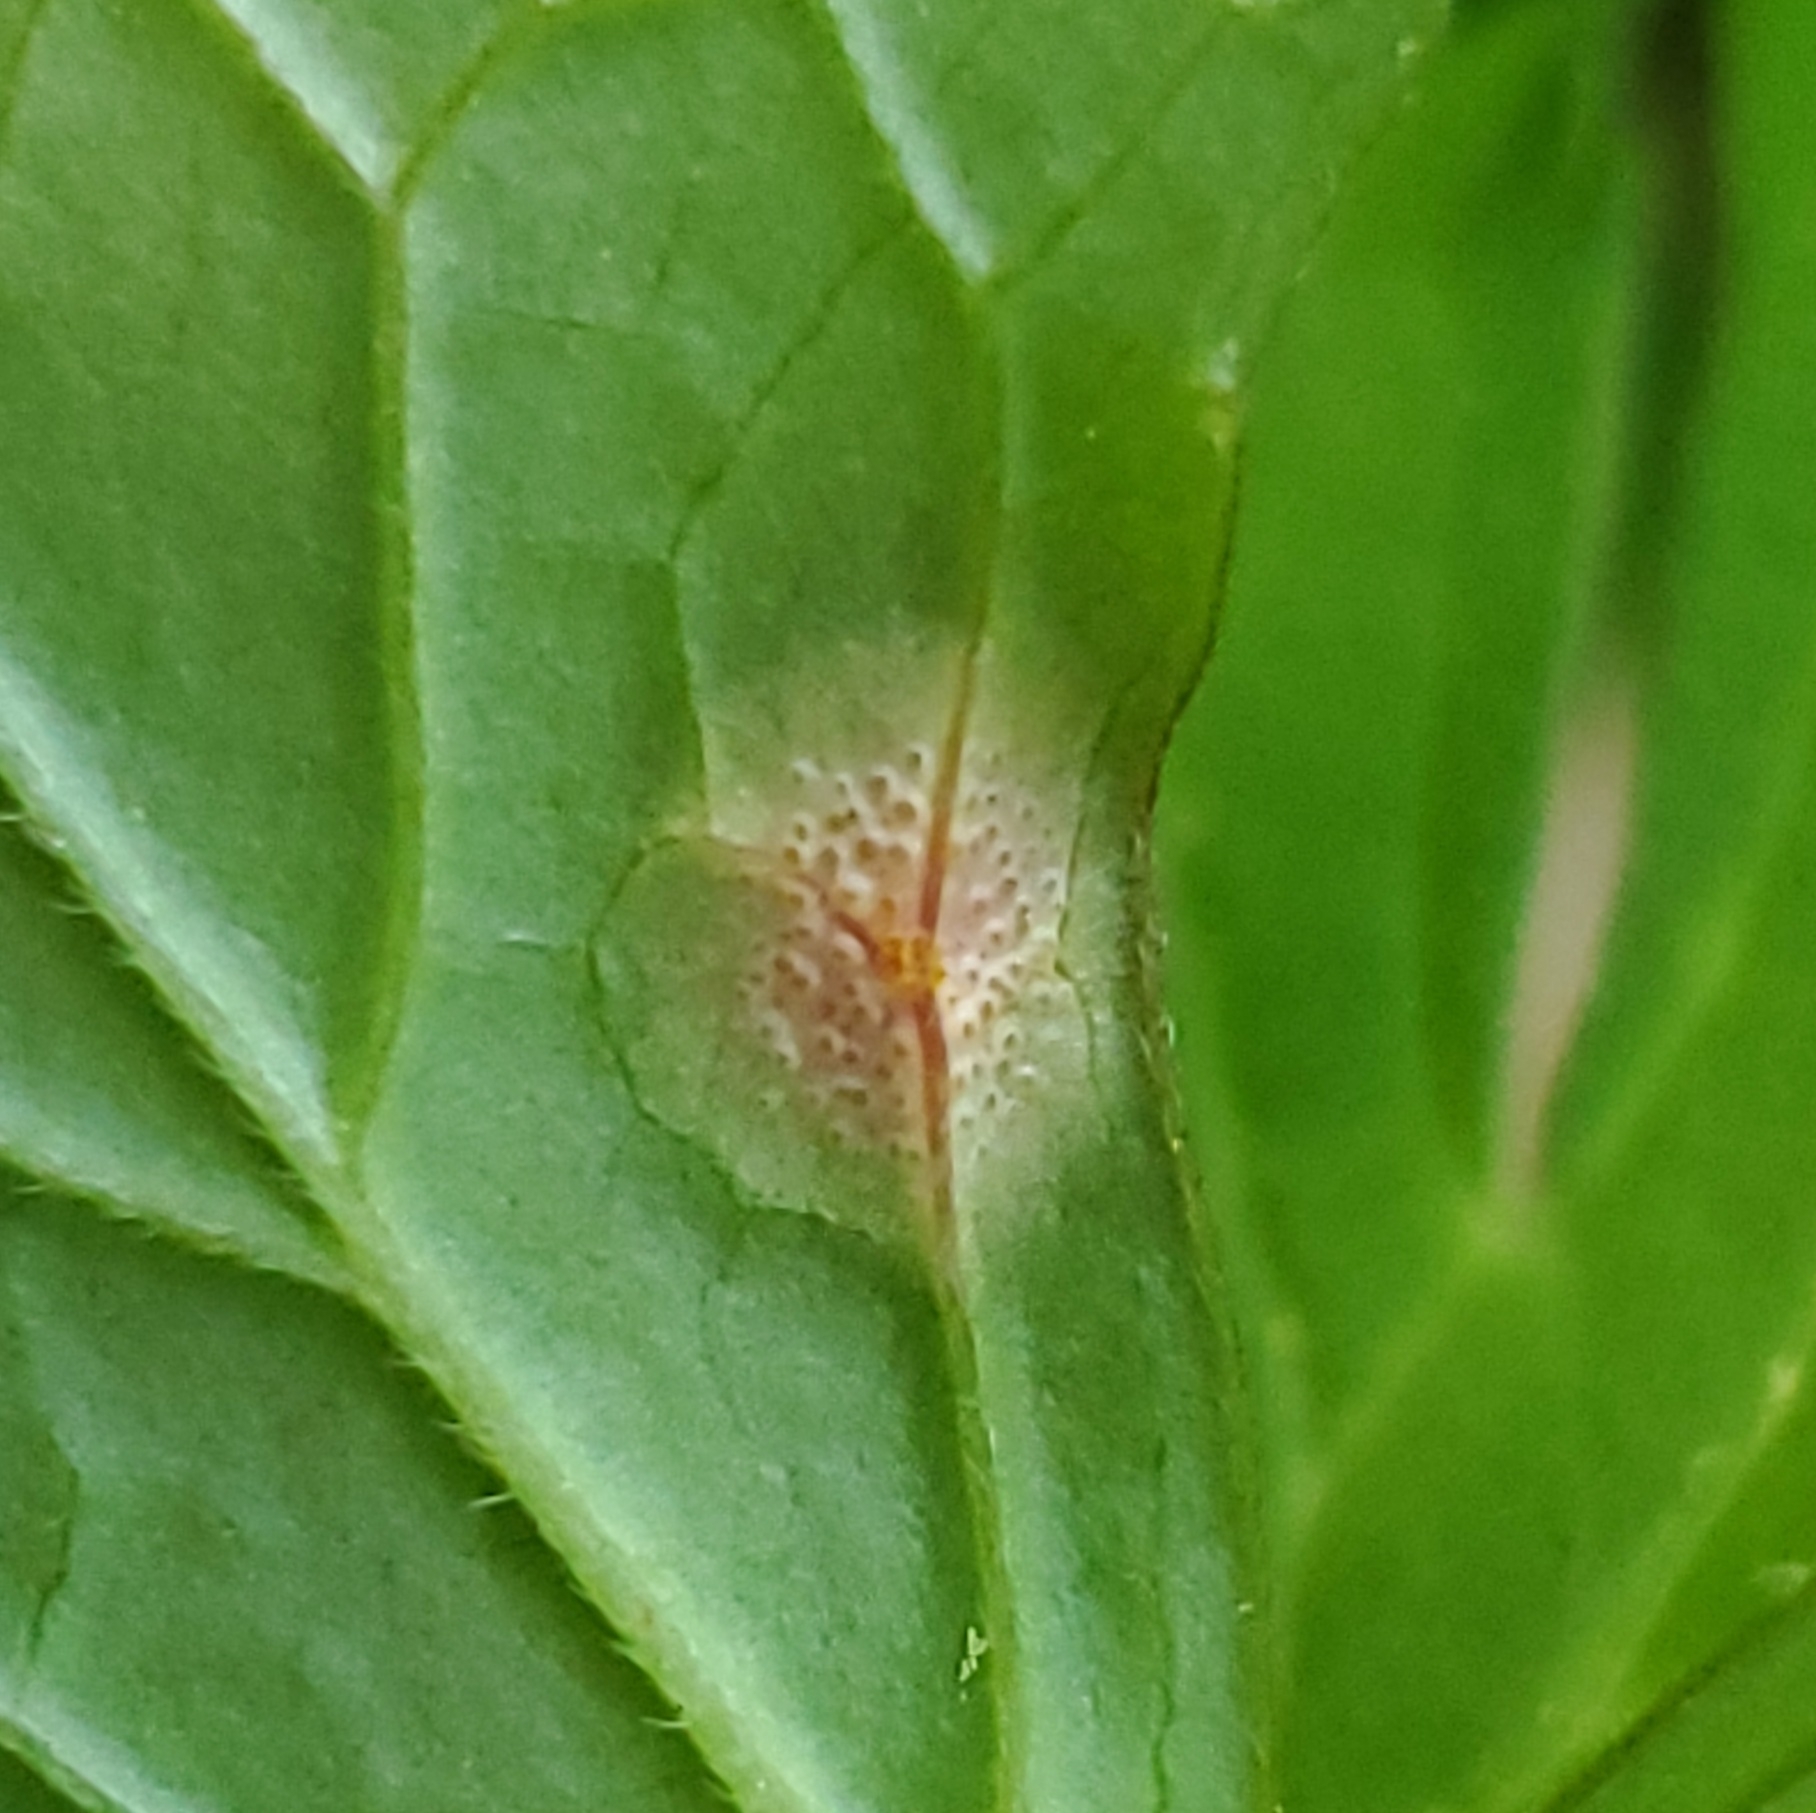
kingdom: Fungi
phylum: Basidiomycota
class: Pucciniomycetes
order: Pucciniales
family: Pucciniaceae
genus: Puccinia
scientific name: Puccinia podophylli
